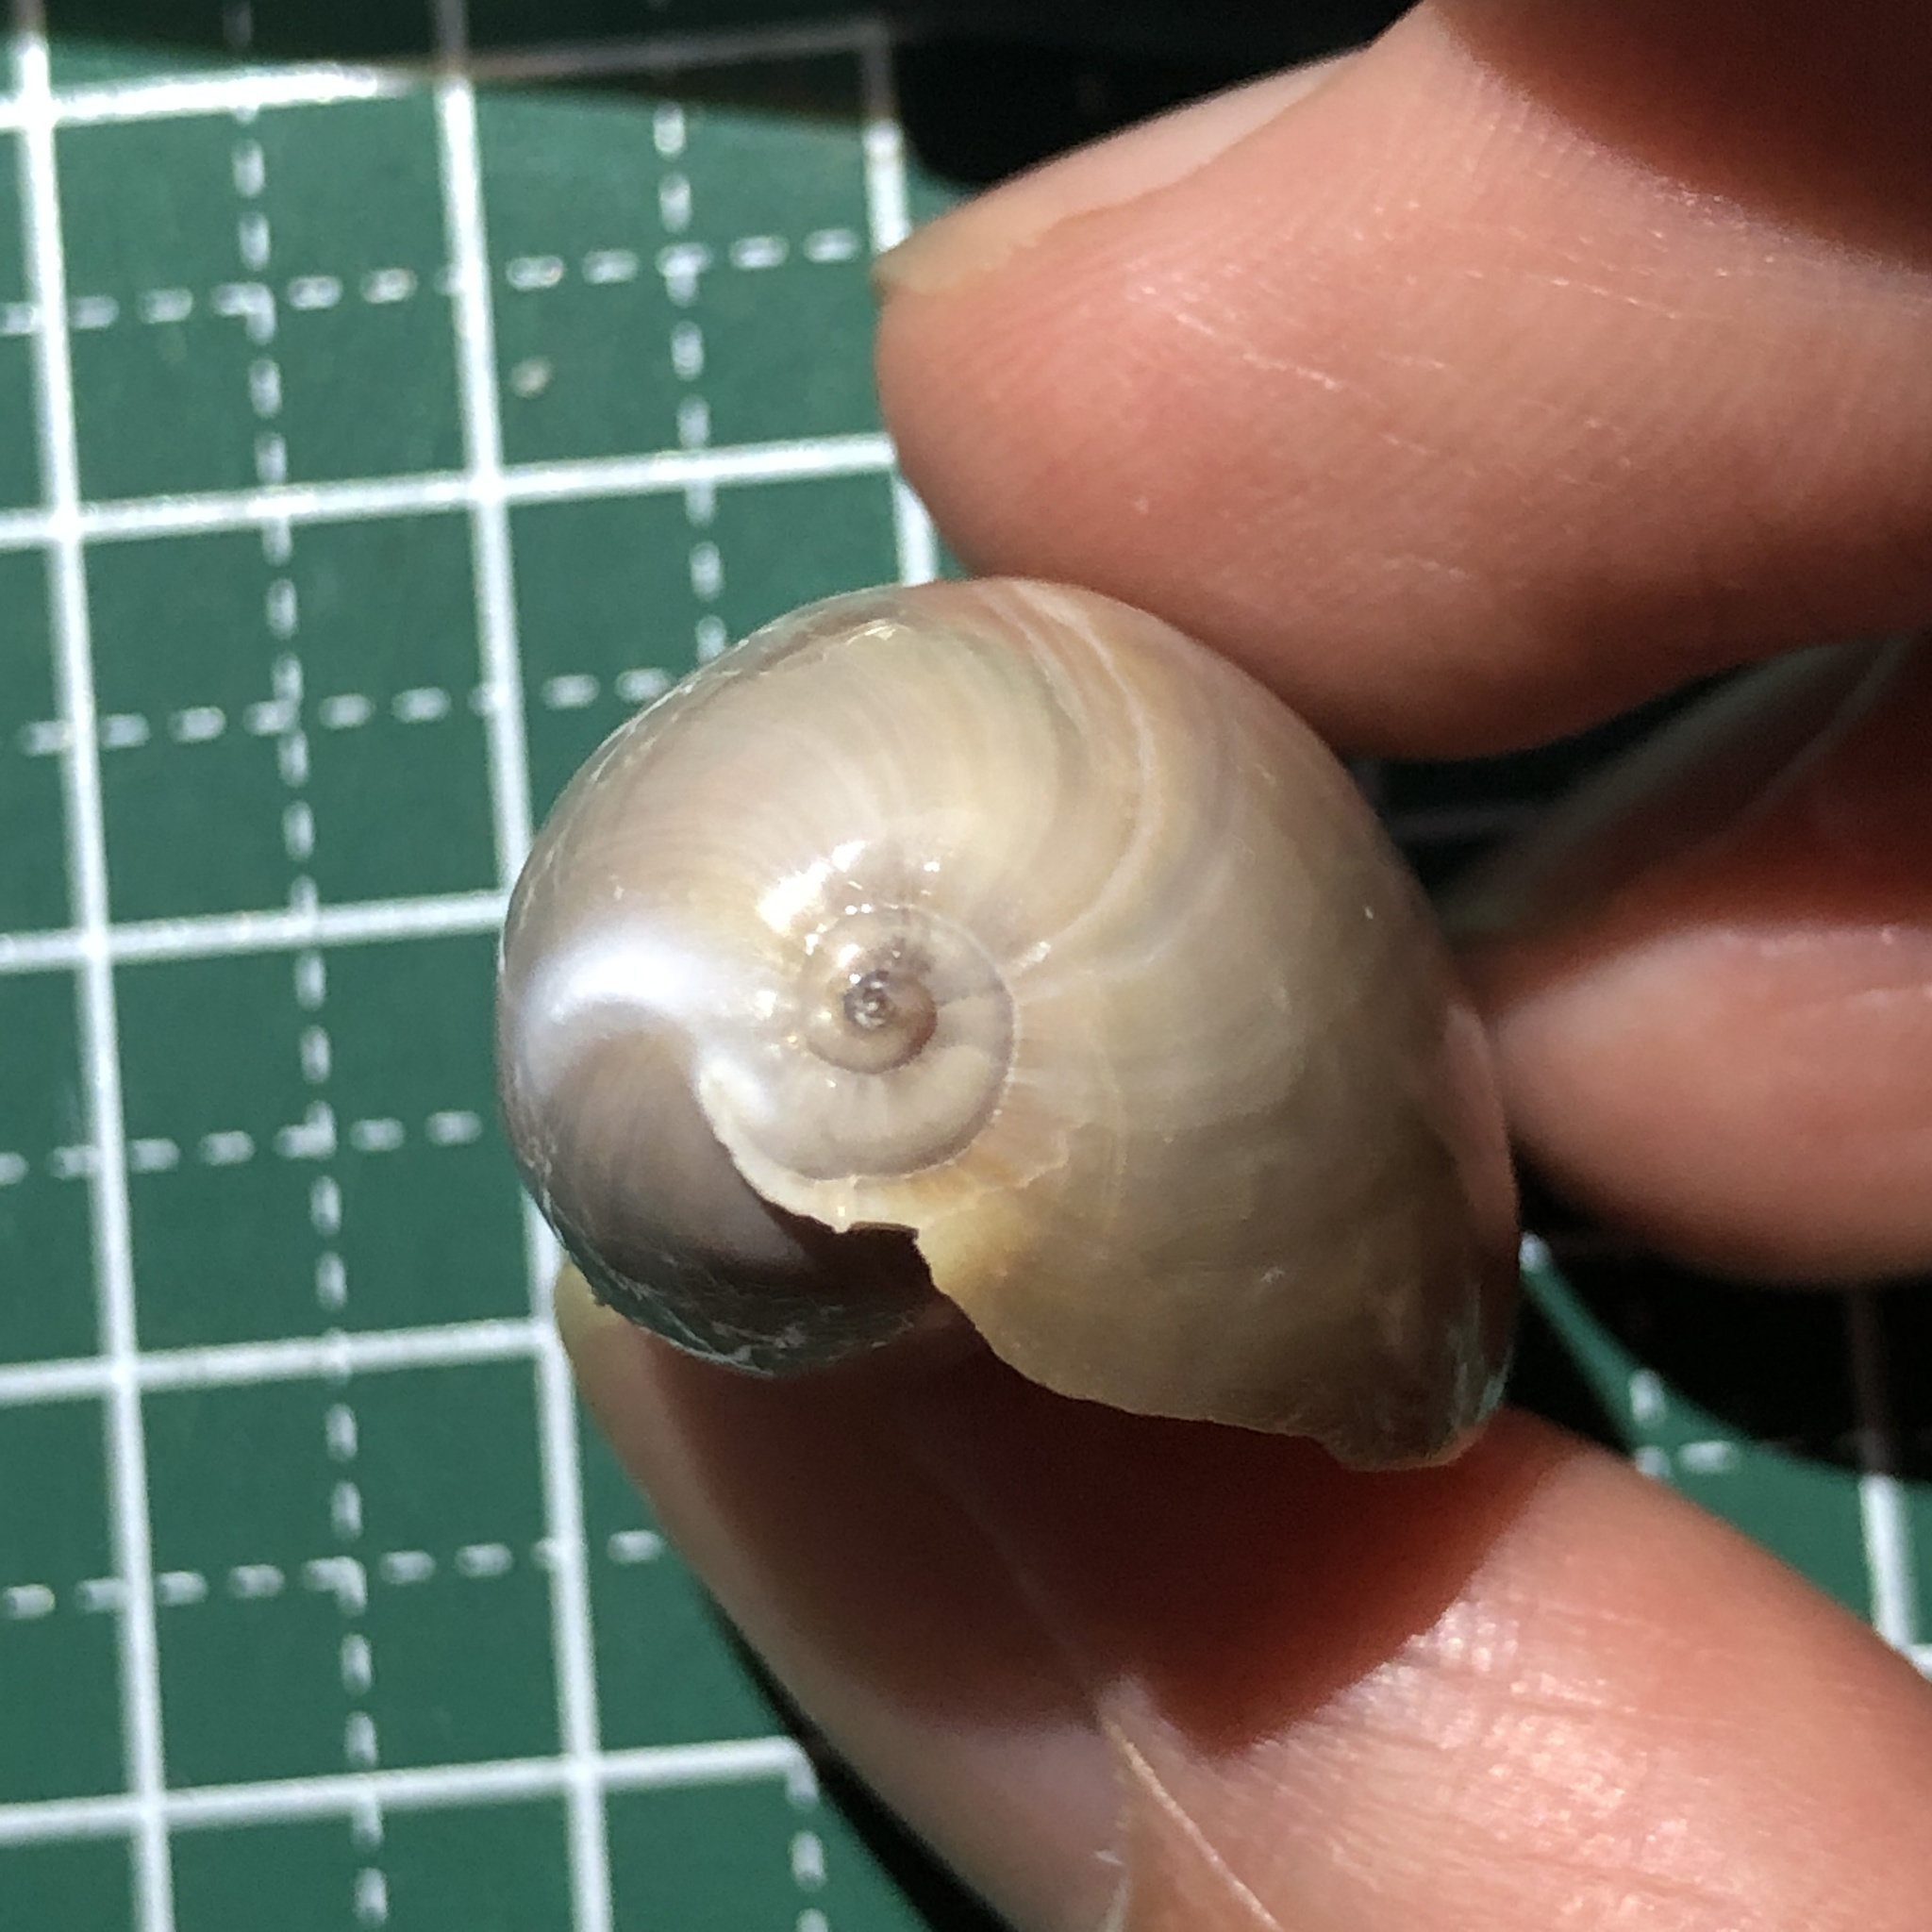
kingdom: Animalia
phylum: Mollusca
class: Gastropoda
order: Littorinimorpha
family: Cypraeidae
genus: Lyncina
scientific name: Lyncina vitellus
